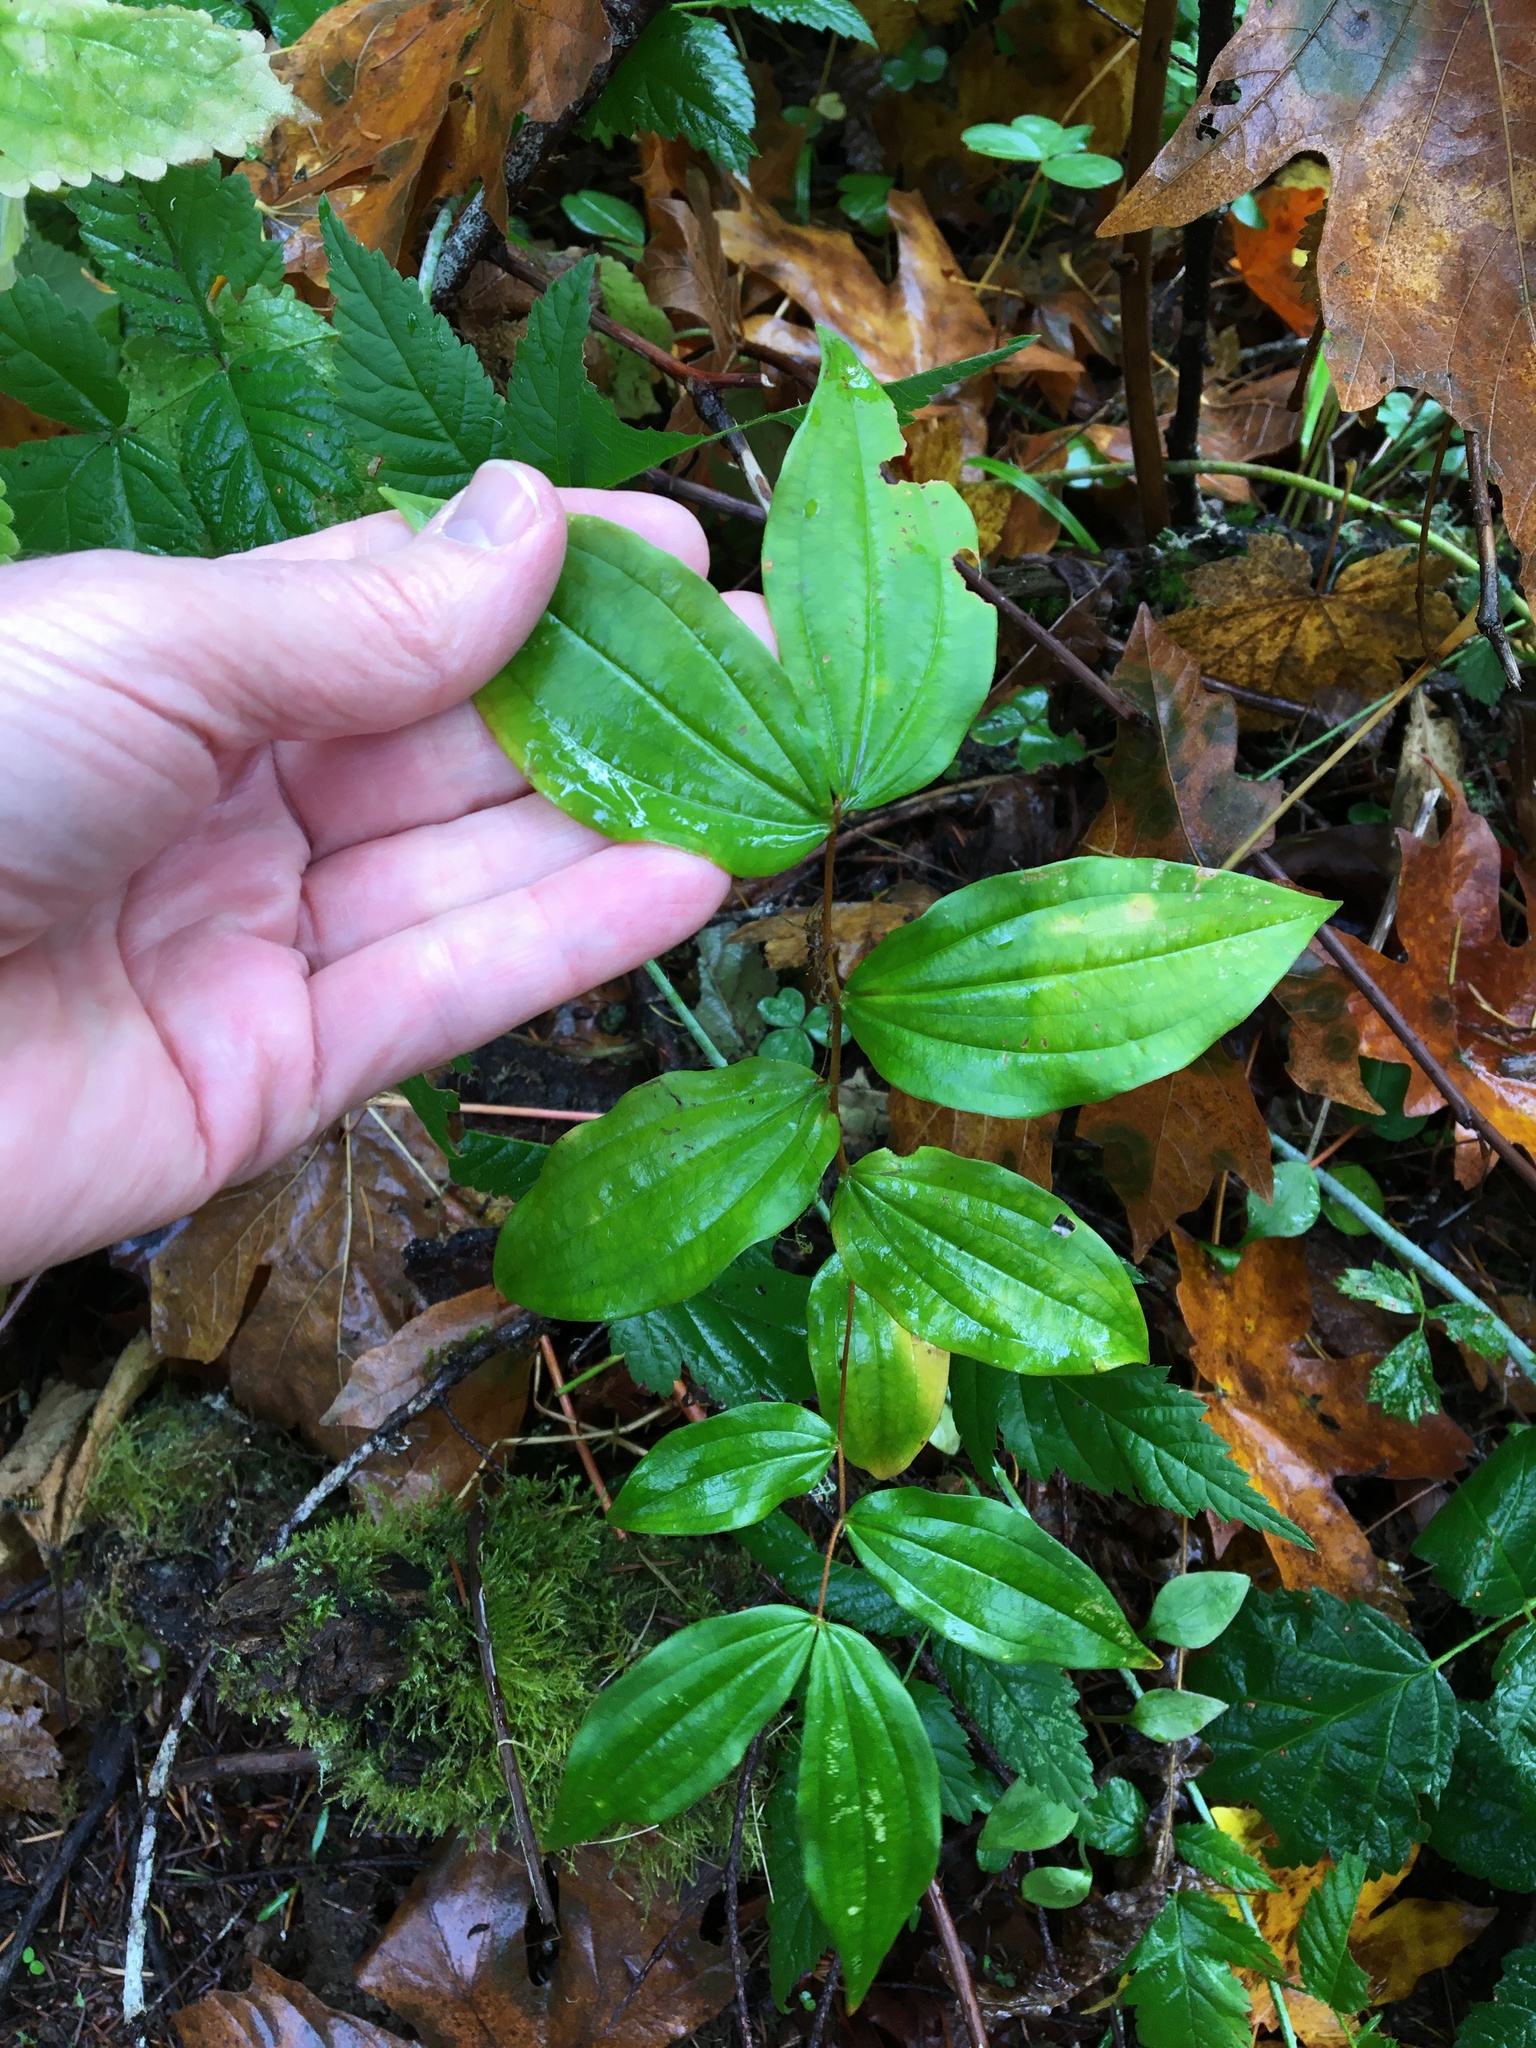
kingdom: Plantae
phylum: Tracheophyta
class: Liliopsida
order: Liliales
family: Liliaceae
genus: Prosartes
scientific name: Prosartes smithii
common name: Fairy-lantern
